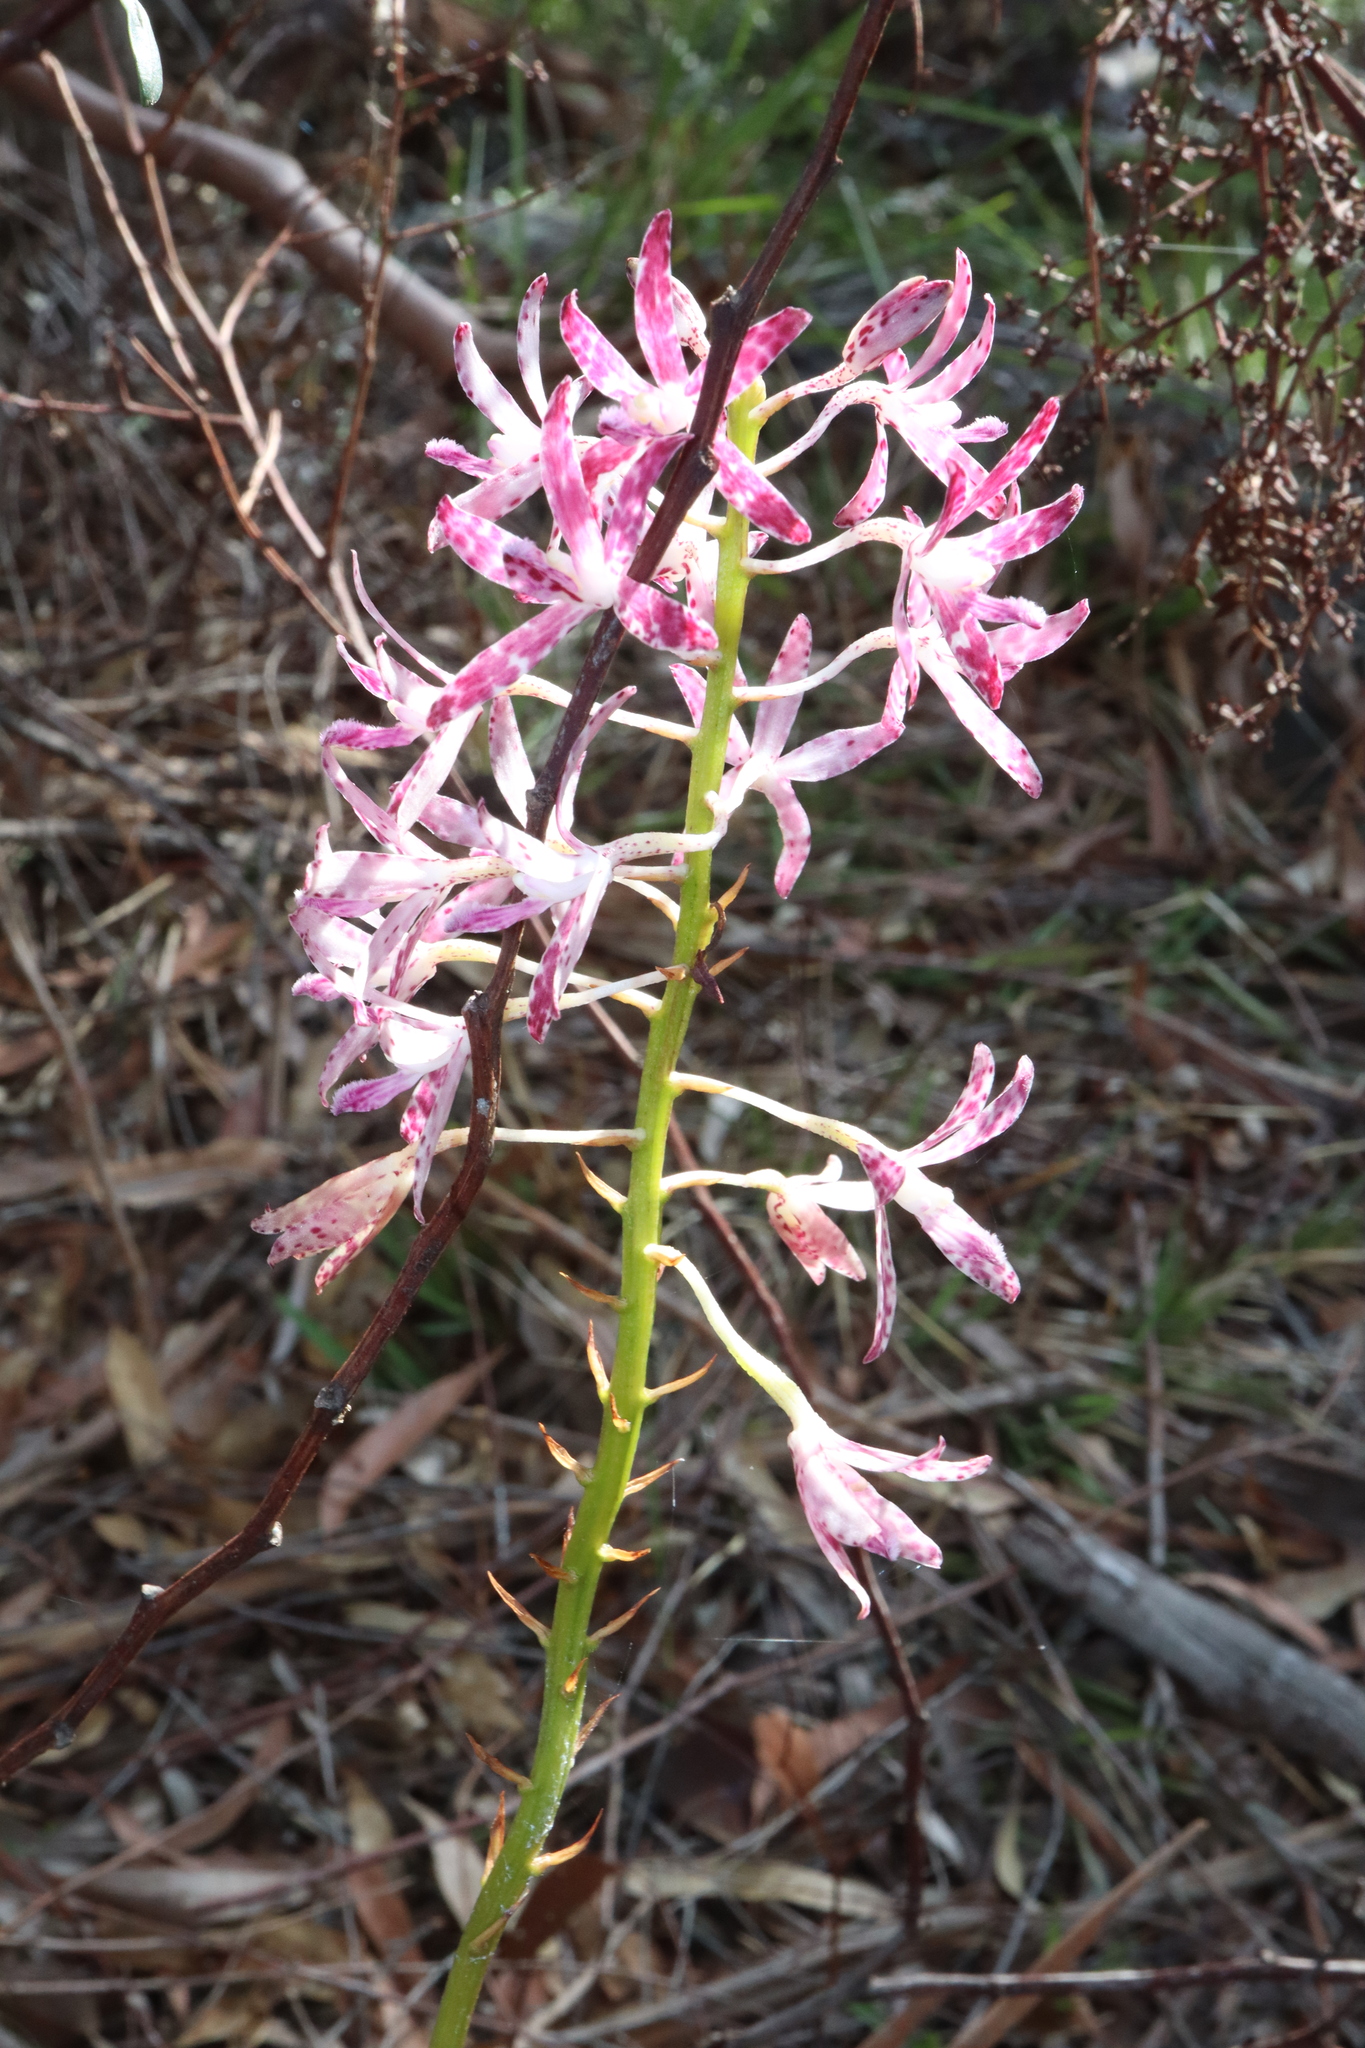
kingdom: Plantae
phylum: Tracheophyta
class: Liliopsida
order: Asparagales
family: Orchidaceae
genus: Dipodium
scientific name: Dipodium variegatum
